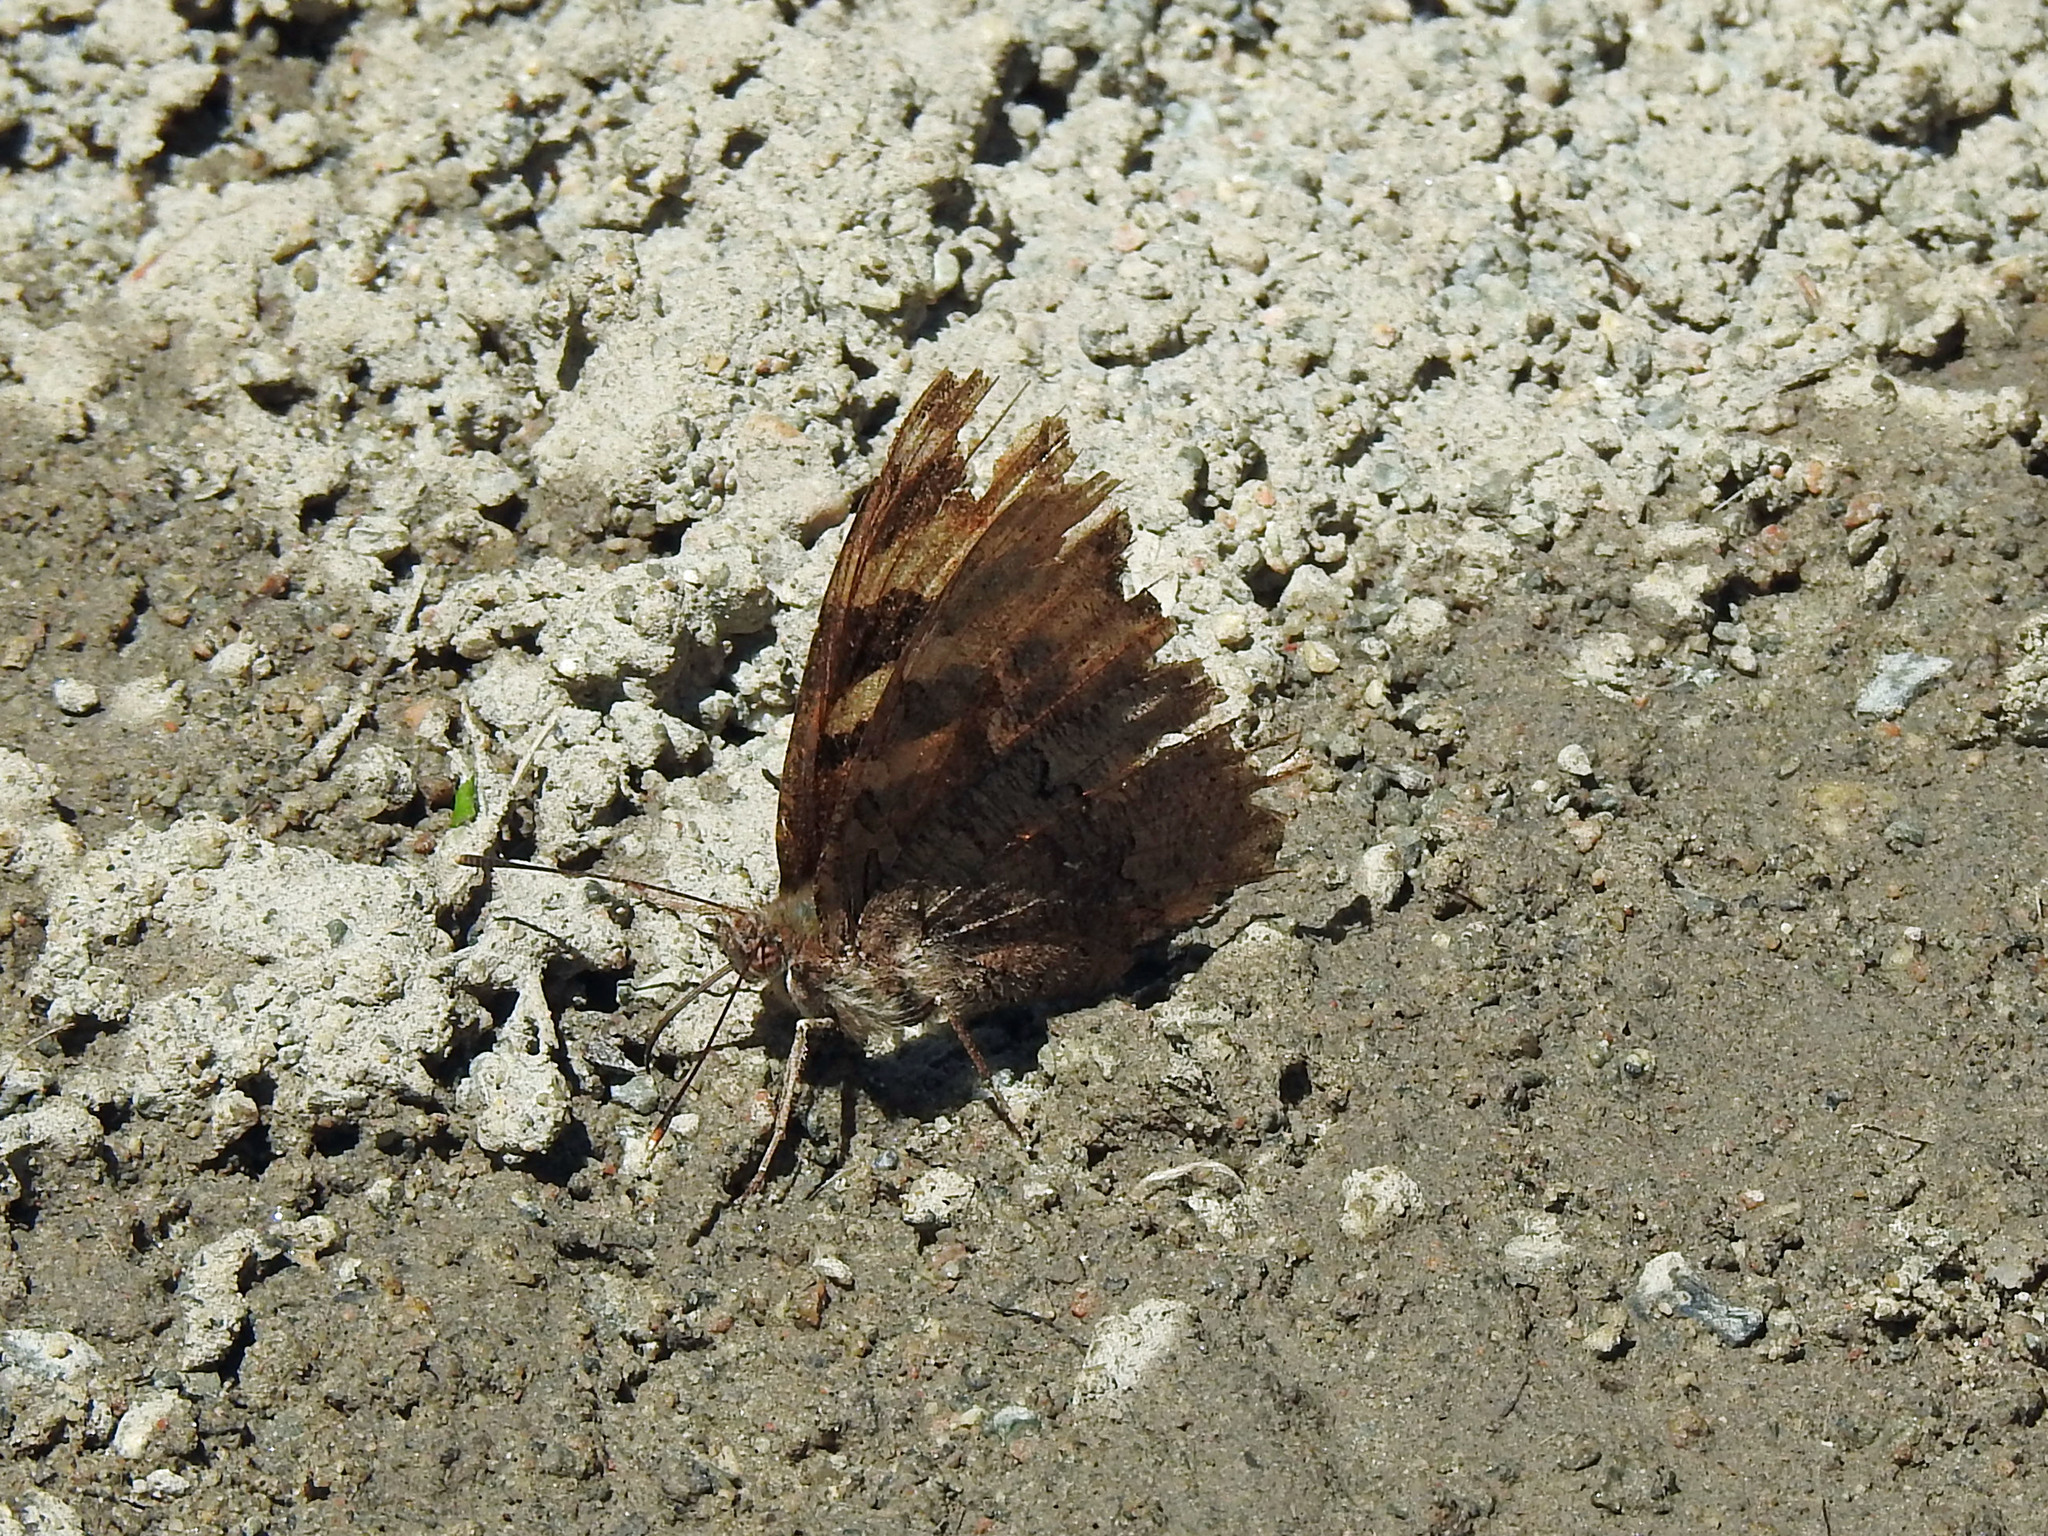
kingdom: Animalia
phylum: Arthropoda
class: Insecta
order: Lepidoptera
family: Nymphalidae
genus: Polygonia
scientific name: Polygonia vaualbum
